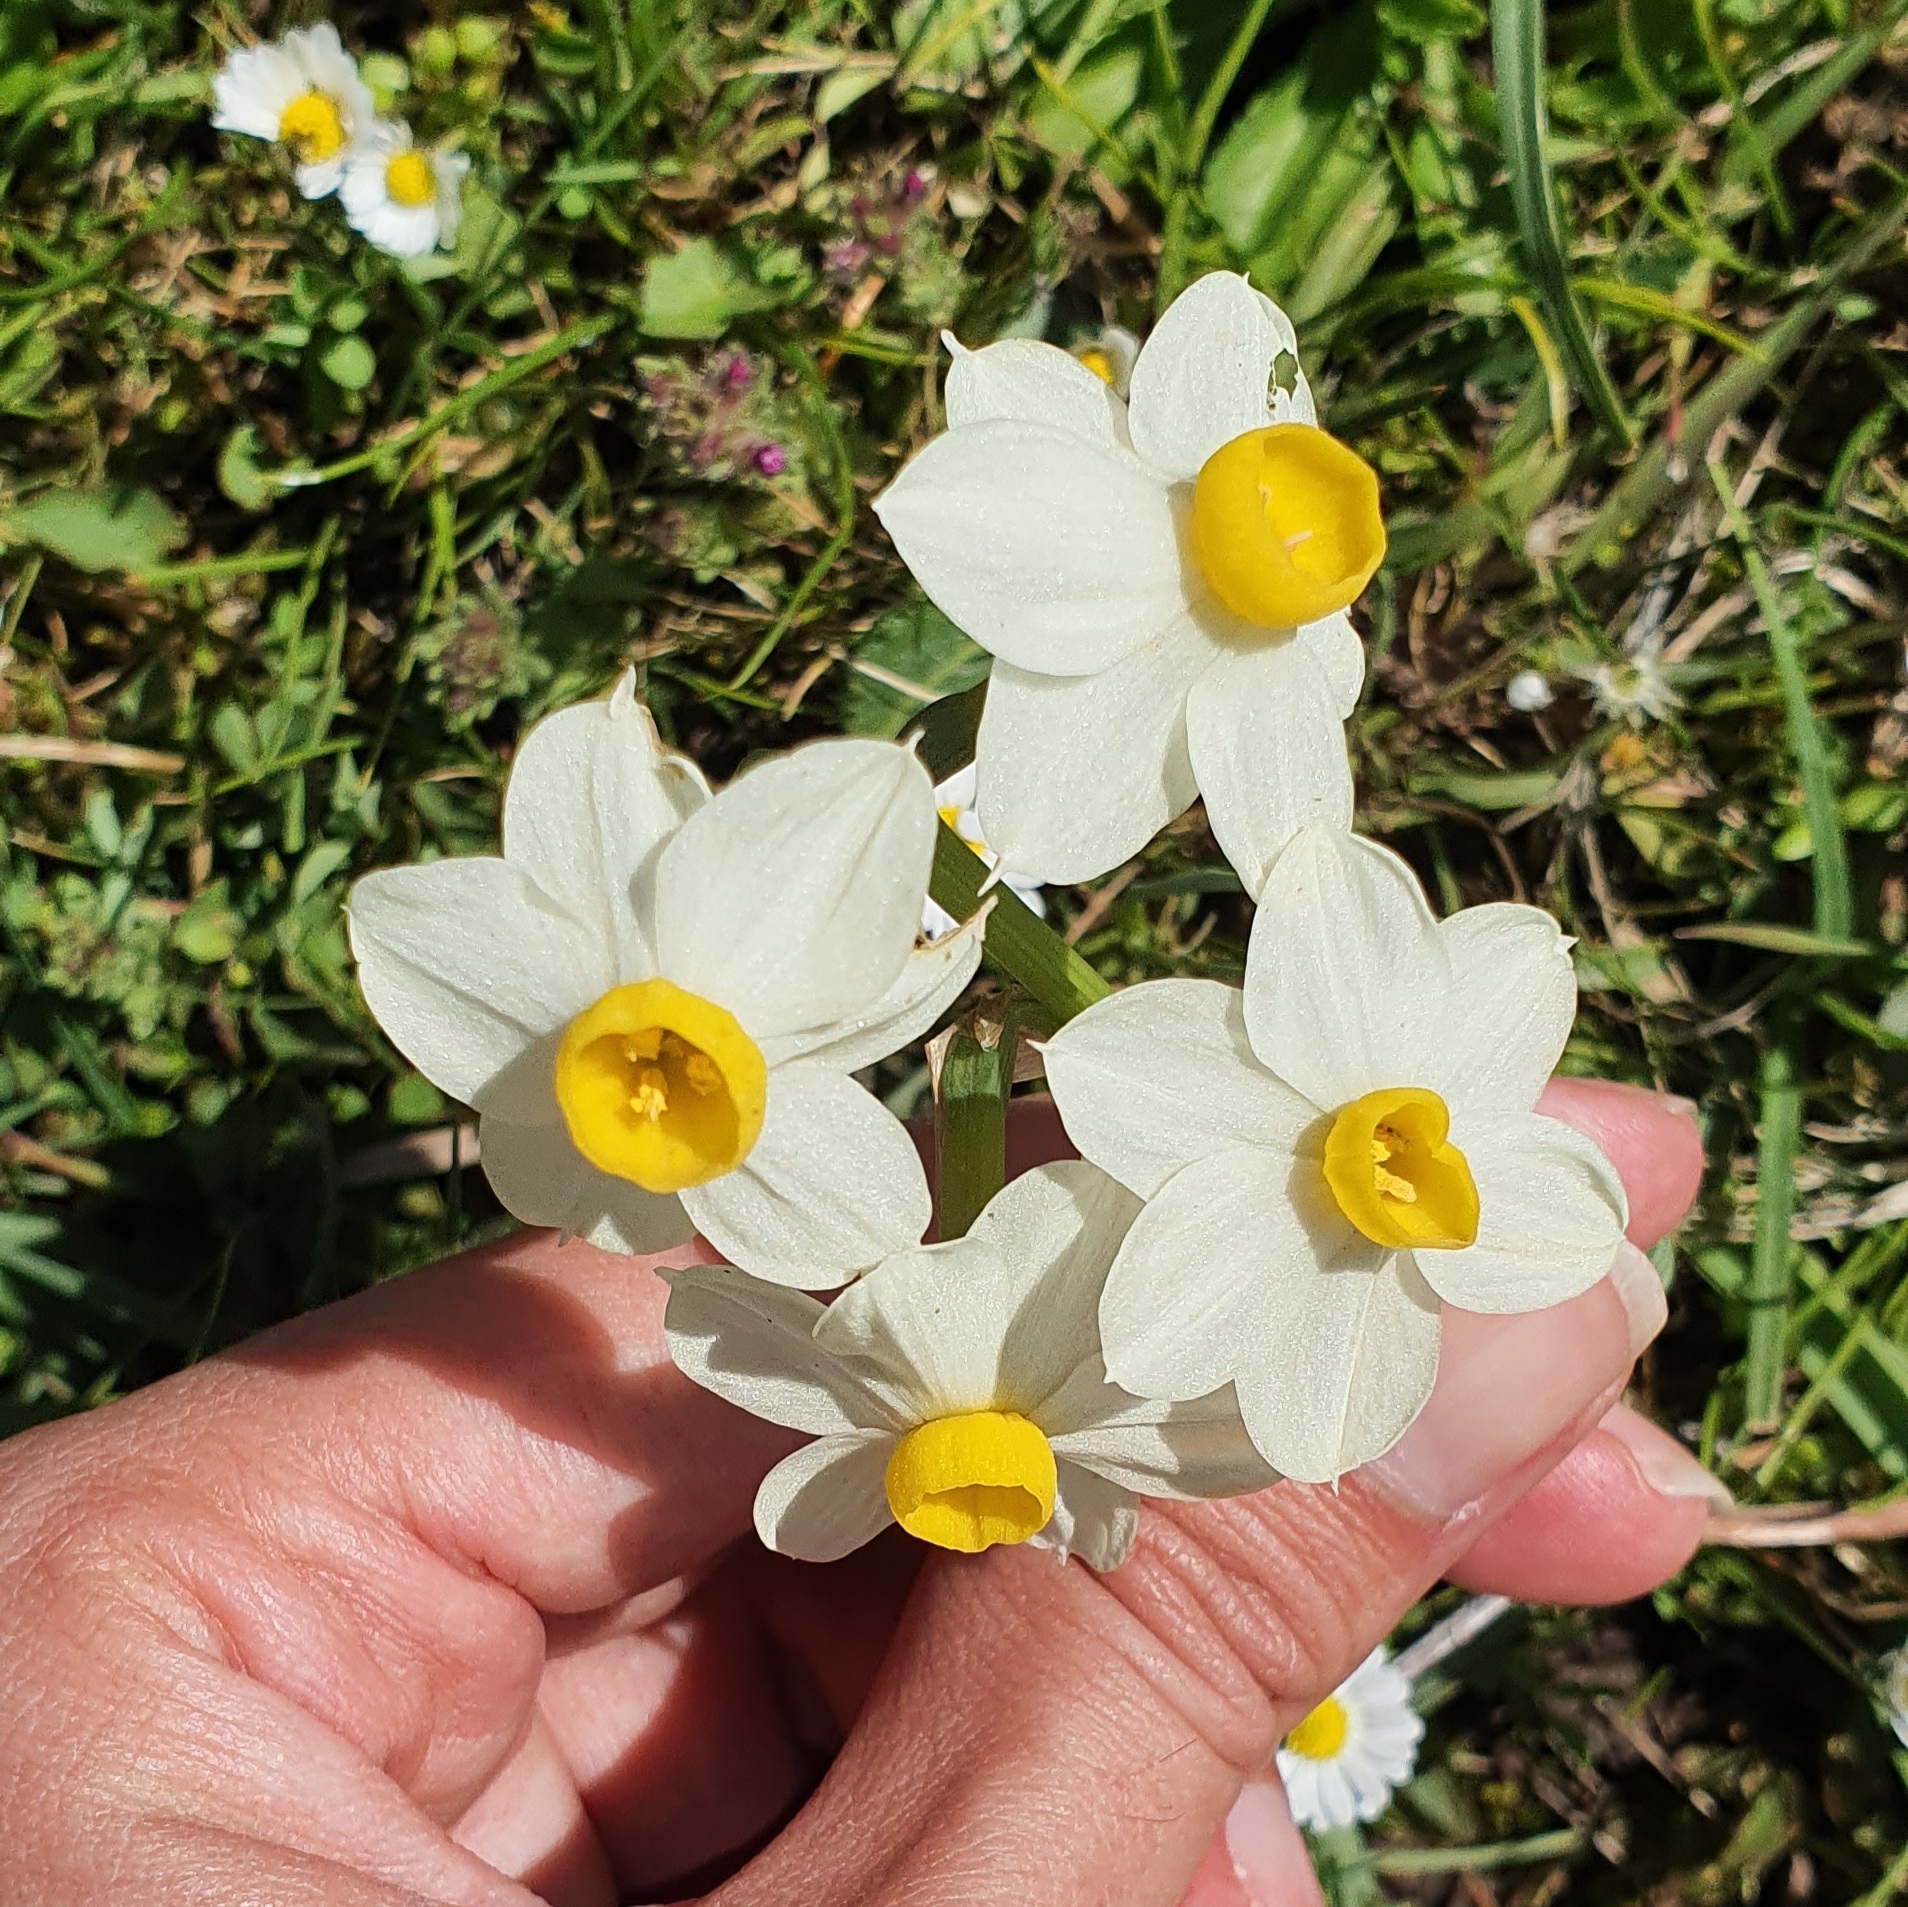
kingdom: Plantae
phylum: Tracheophyta
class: Liliopsida
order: Asparagales
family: Amaryllidaceae
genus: Narcissus
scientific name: Narcissus tazetta
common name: Bunch-flowered daffodil
